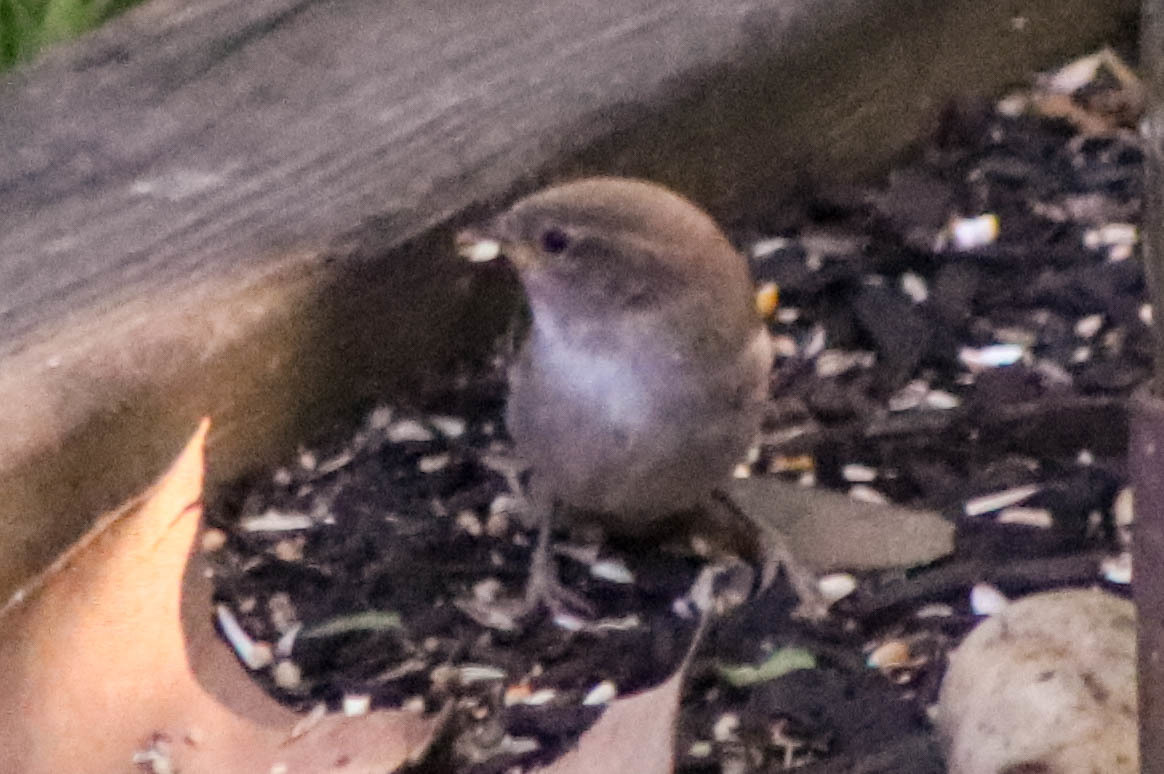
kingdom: Animalia
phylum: Chordata
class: Aves
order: Passeriformes
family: Passeridae
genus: Passer
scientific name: Passer domesticus
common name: House sparrow
